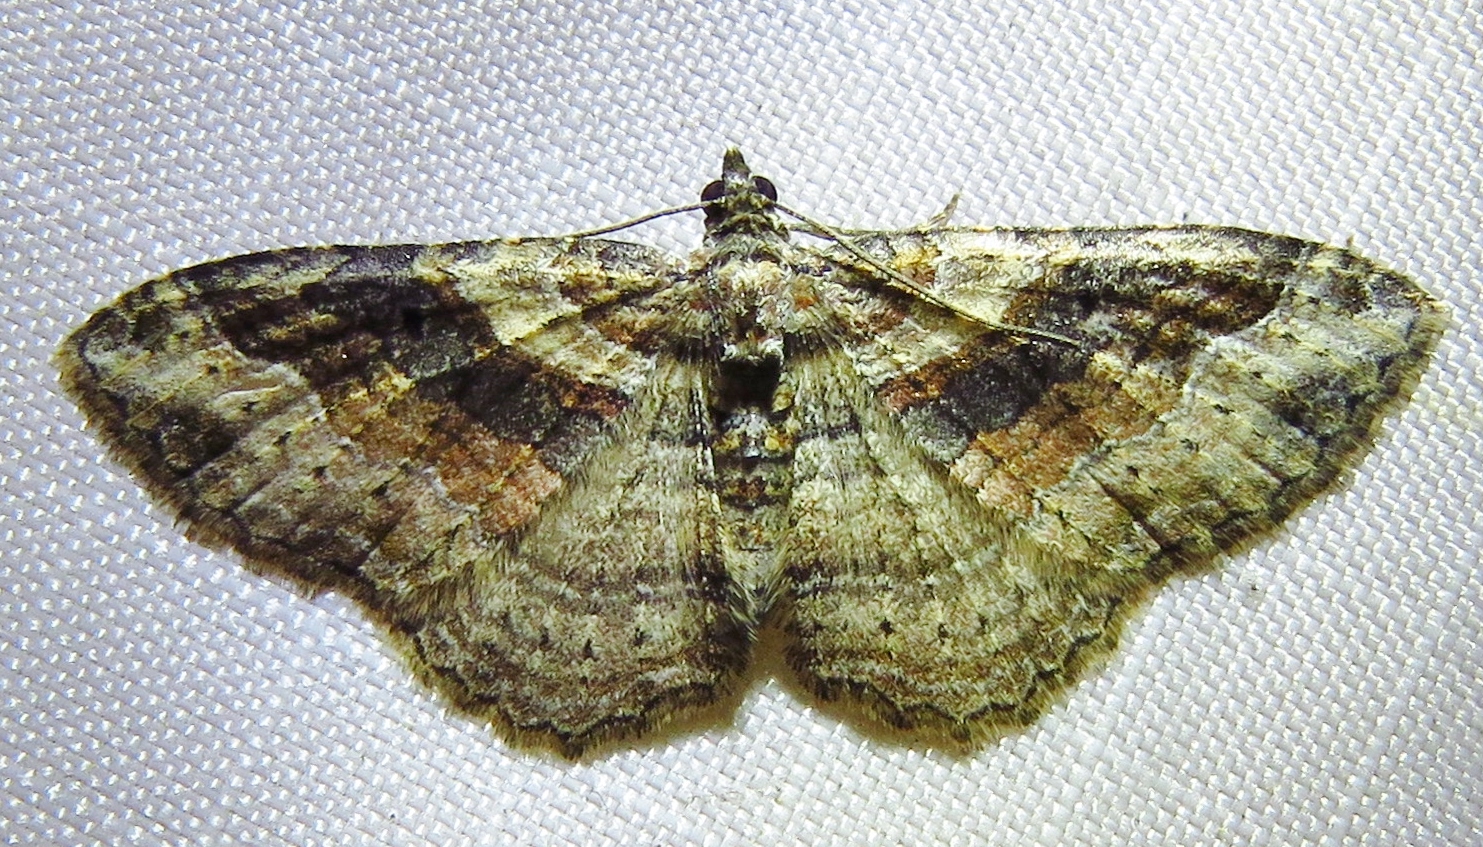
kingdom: Animalia
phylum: Arthropoda
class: Insecta
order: Lepidoptera
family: Geometridae
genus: Costaconvexa
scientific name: Costaconvexa centrostrigaria
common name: Bent-line carpet
